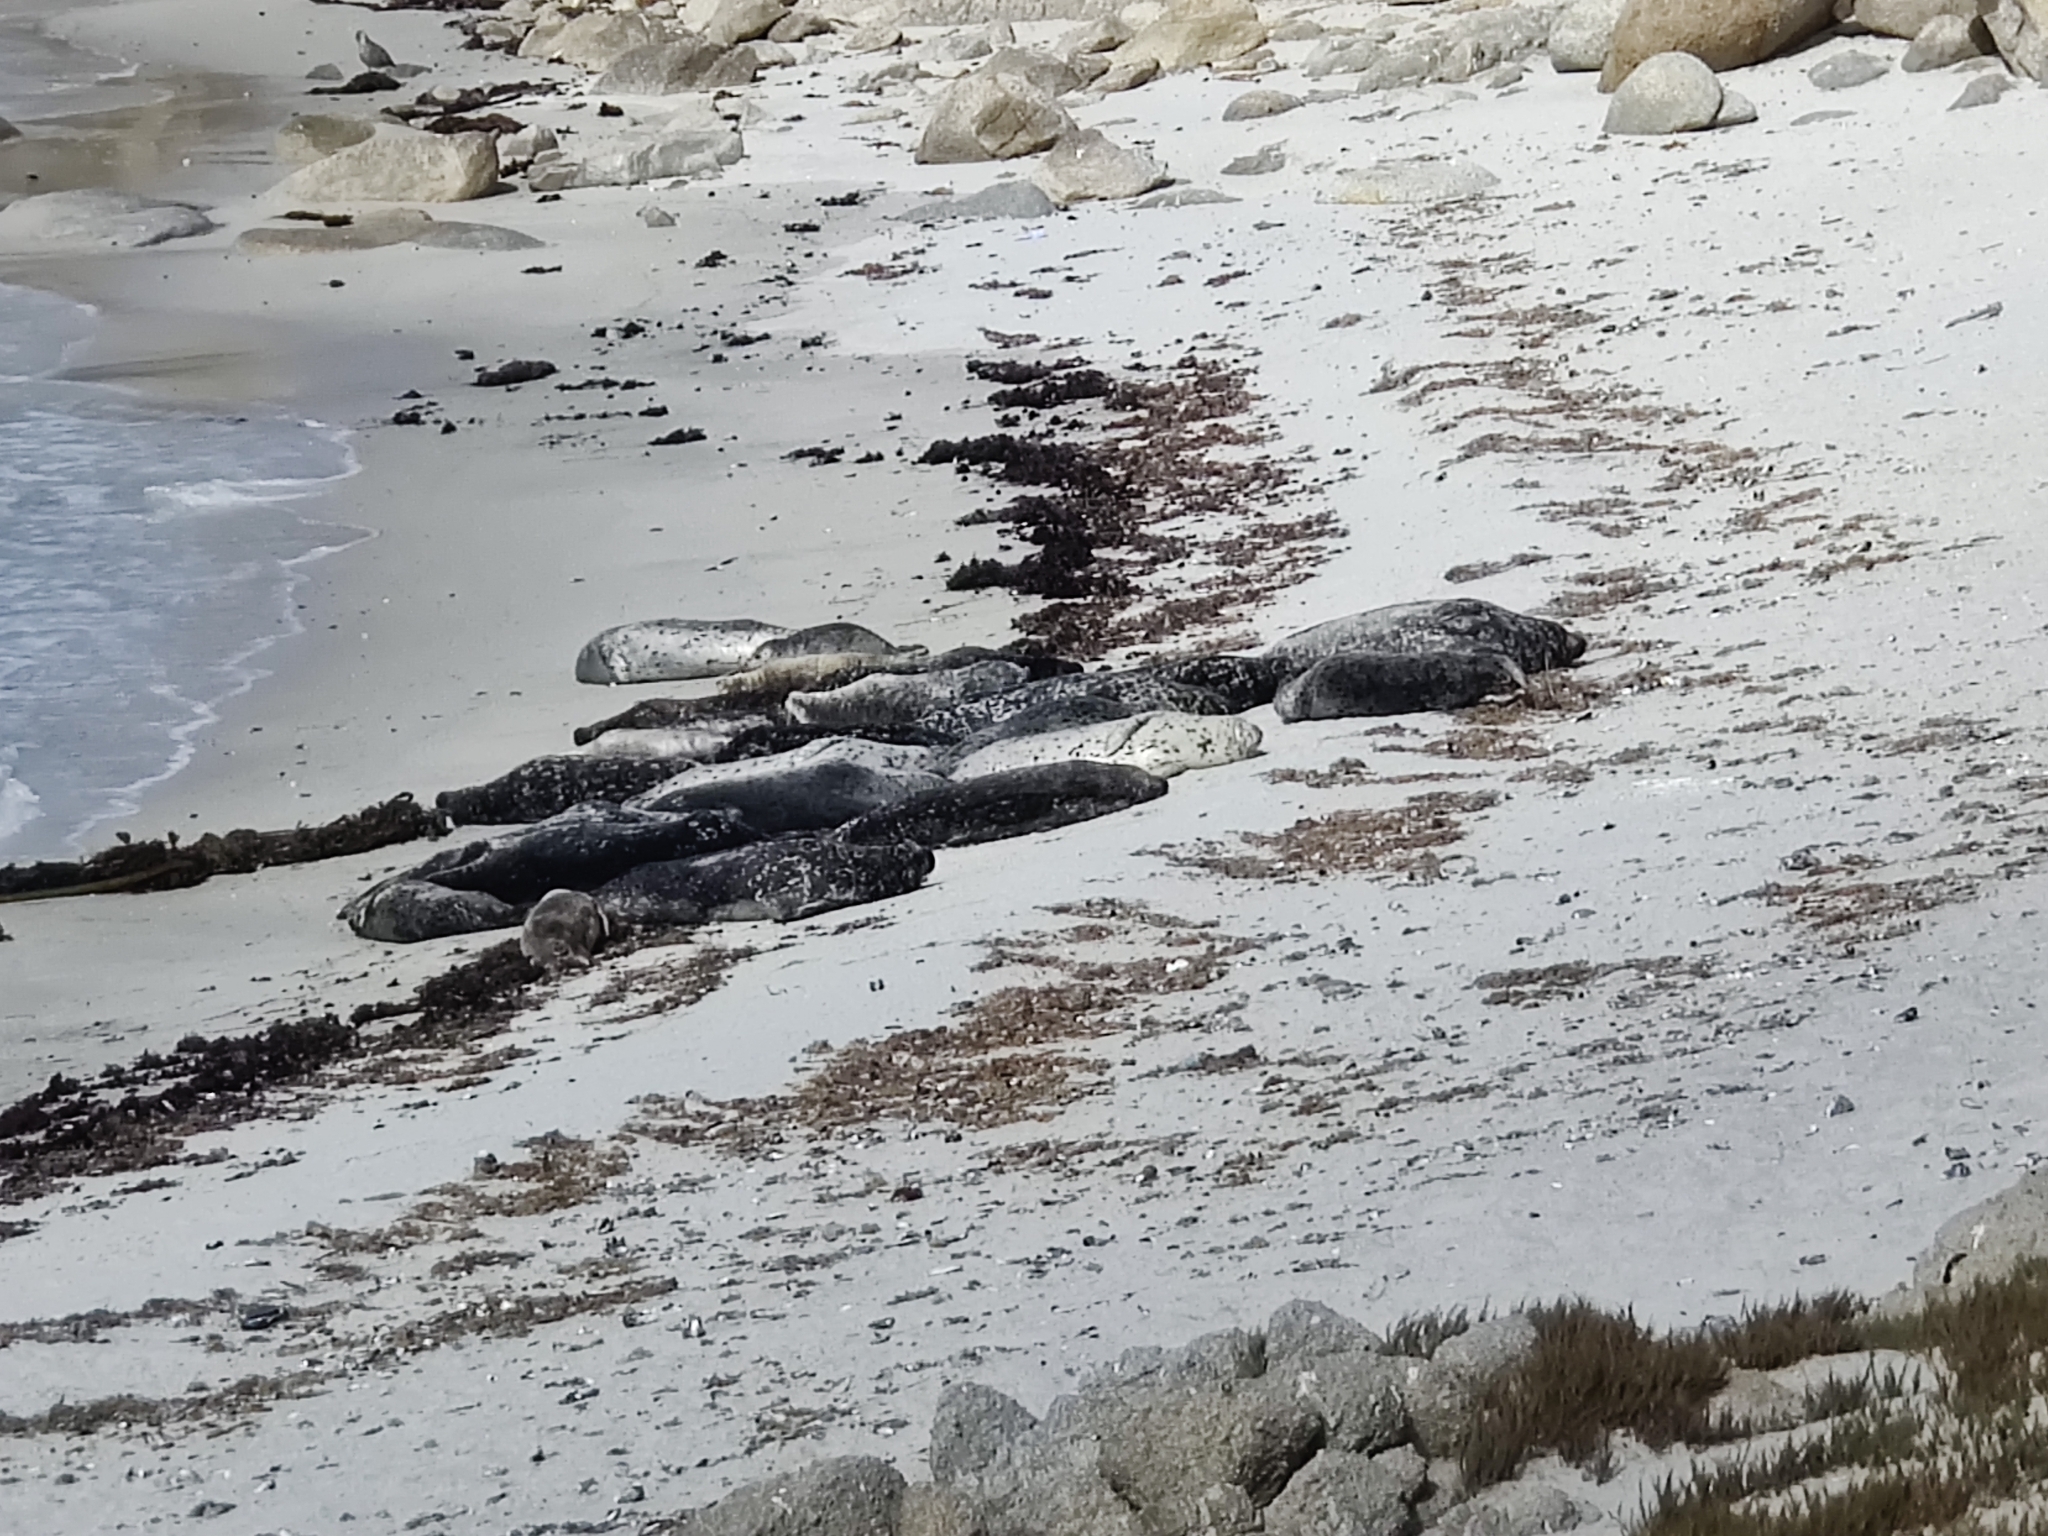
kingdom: Animalia
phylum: Chordata
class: Mammalia
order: Carnivora
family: Phocidae
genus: Phoca
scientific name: Phoca vitulina
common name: Harbor seal
